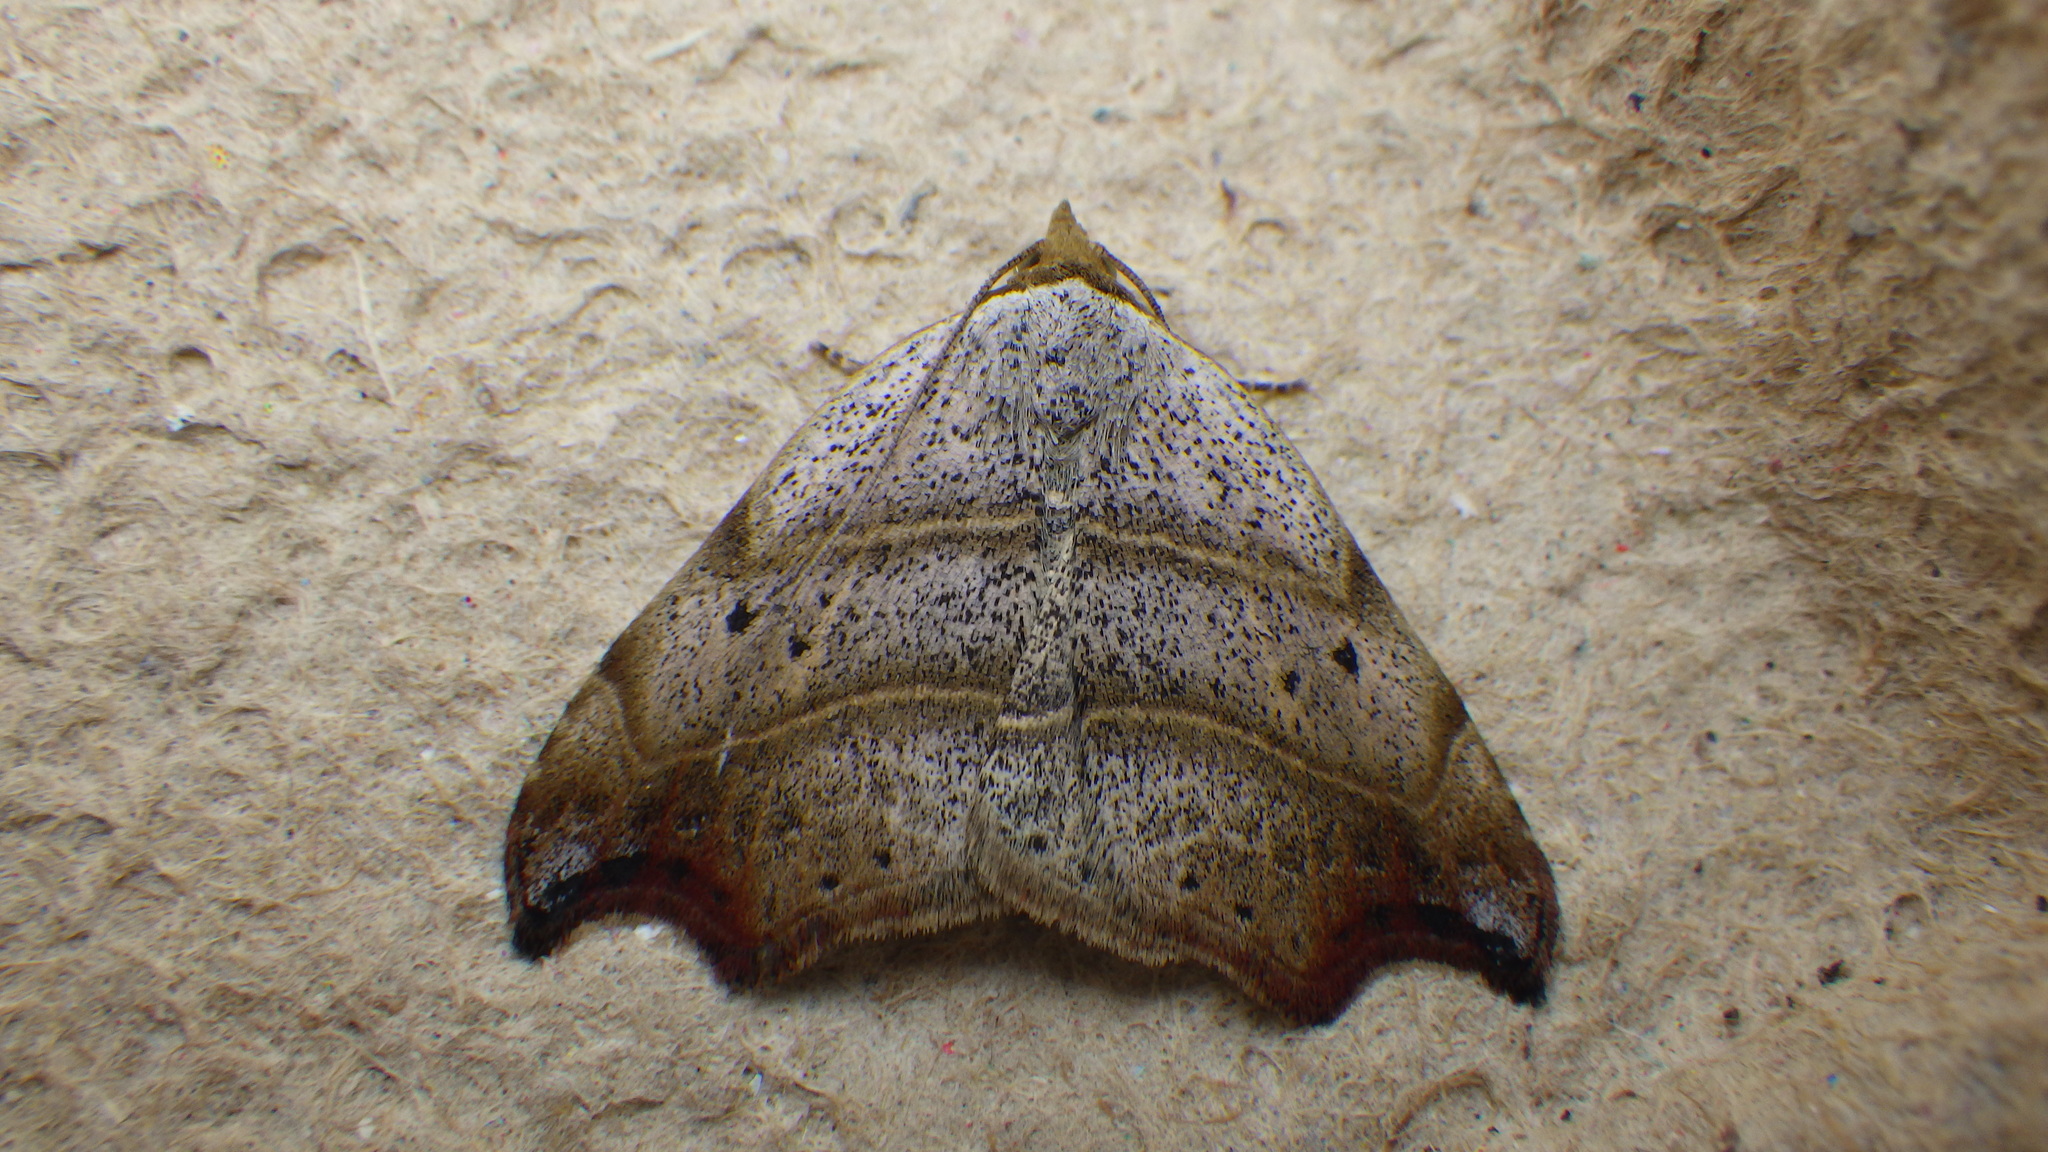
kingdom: Animalia
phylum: Arthropoda
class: Insecta
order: Lepidoptera
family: Erebidae
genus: Laspeyria
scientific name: Laspeyria flexula
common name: Beautiful hook-tip
